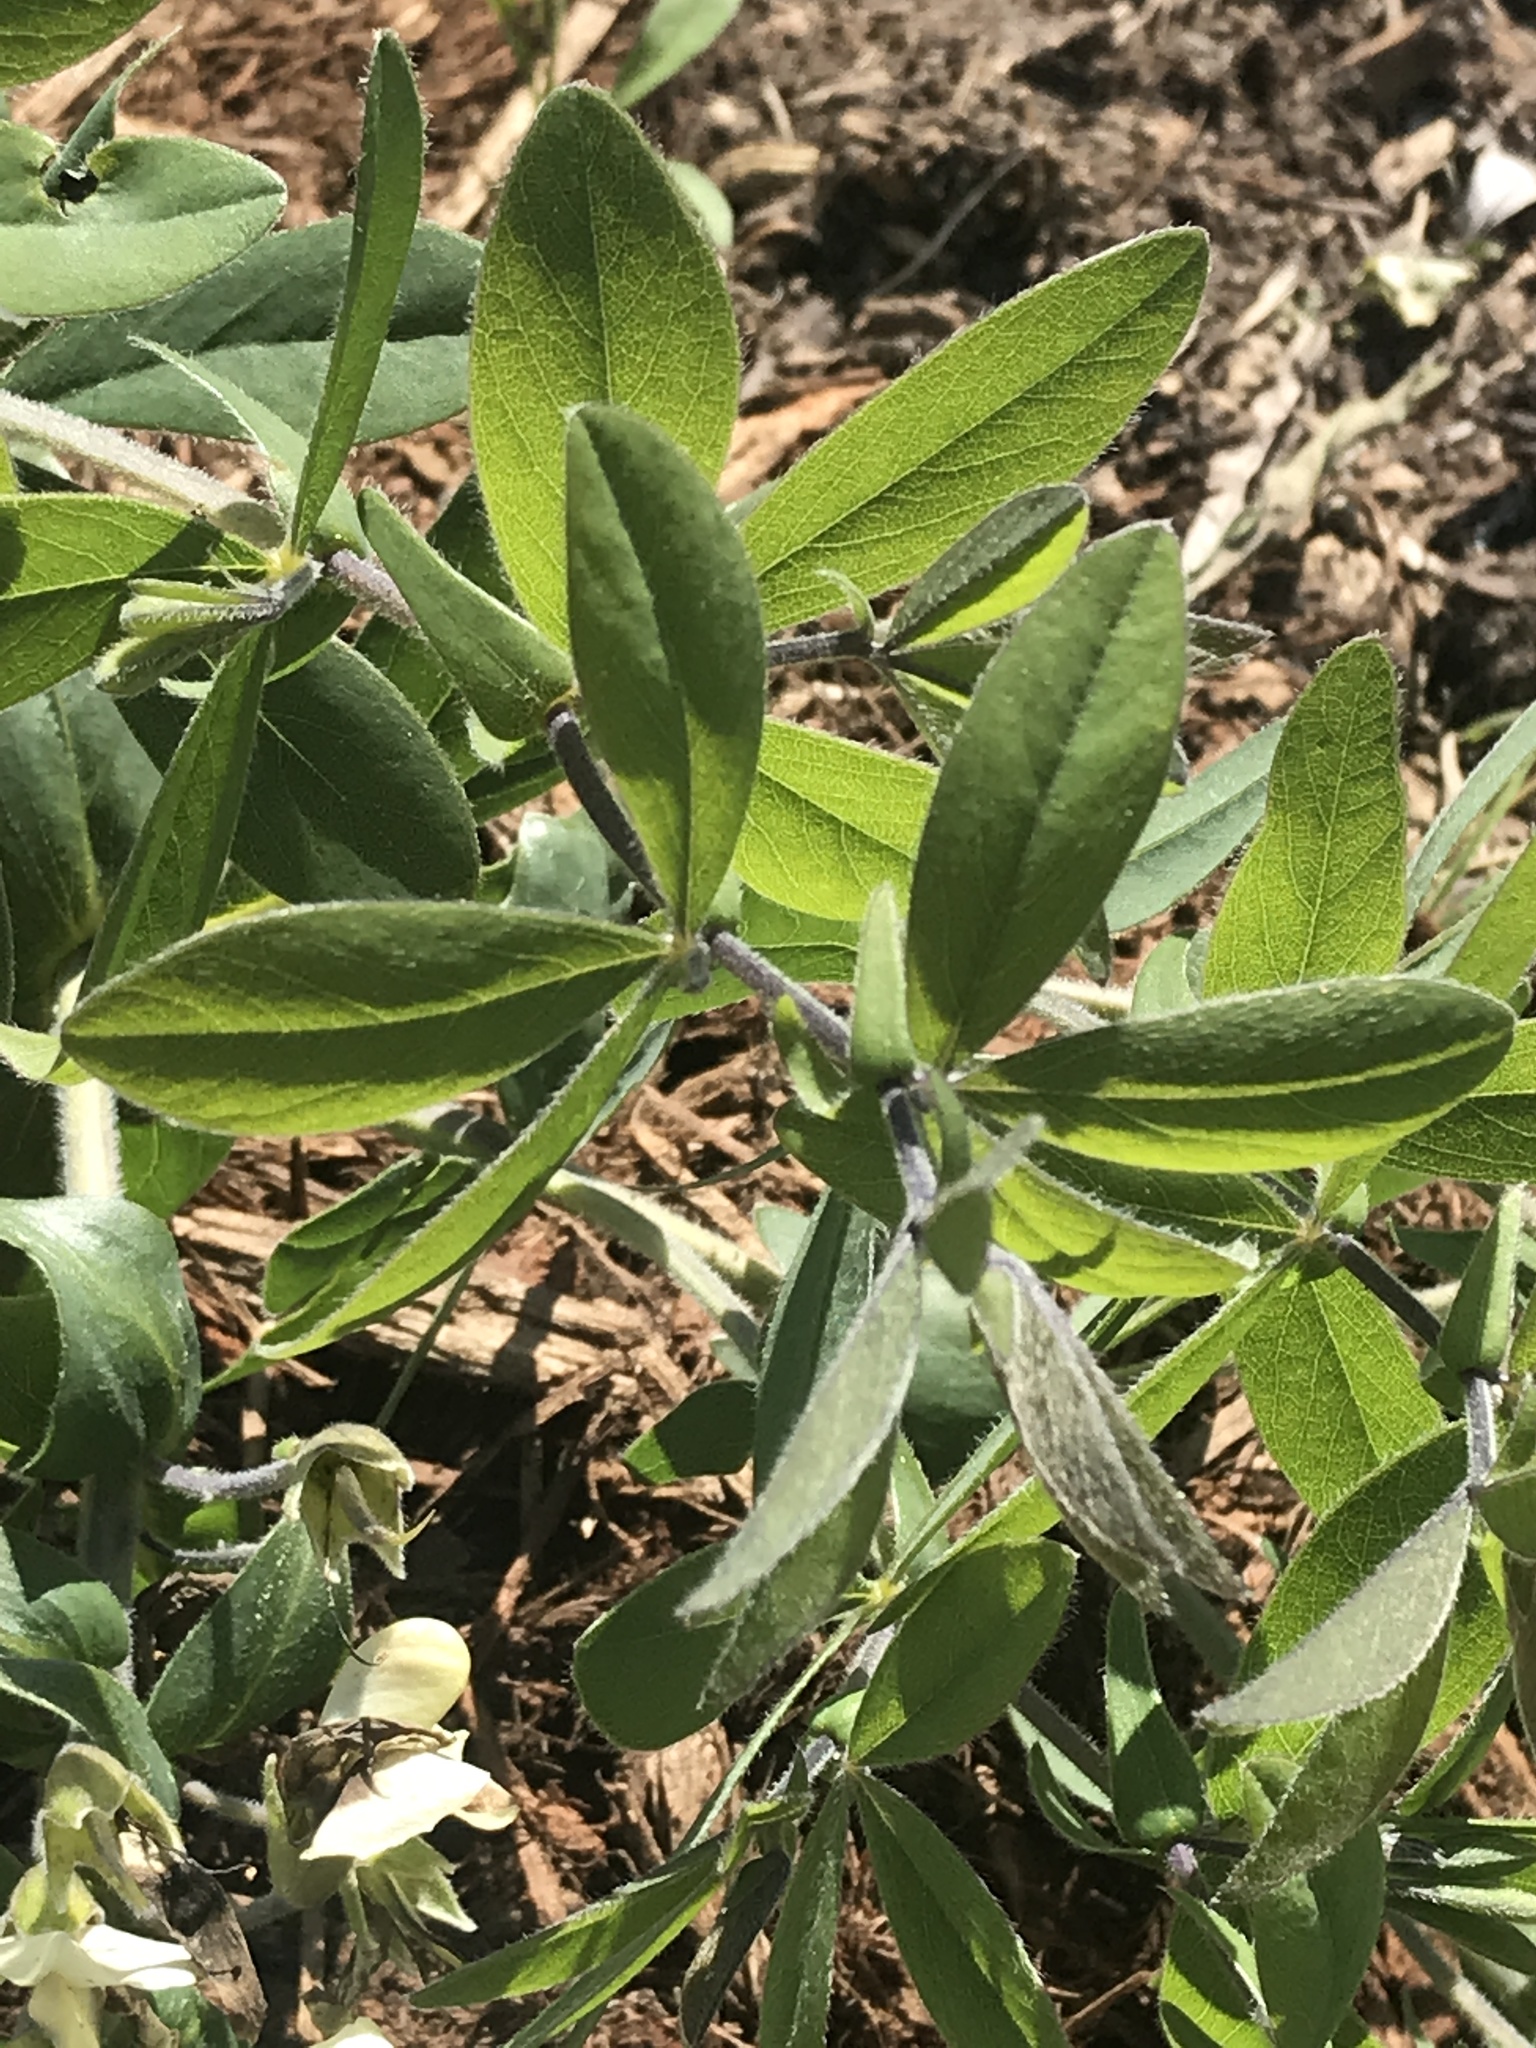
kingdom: Plantae
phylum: Tracheophyta
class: Magnoliopsida
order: Fabales
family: Fabaceae
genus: Baptisia
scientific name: Baptisia bracteata
